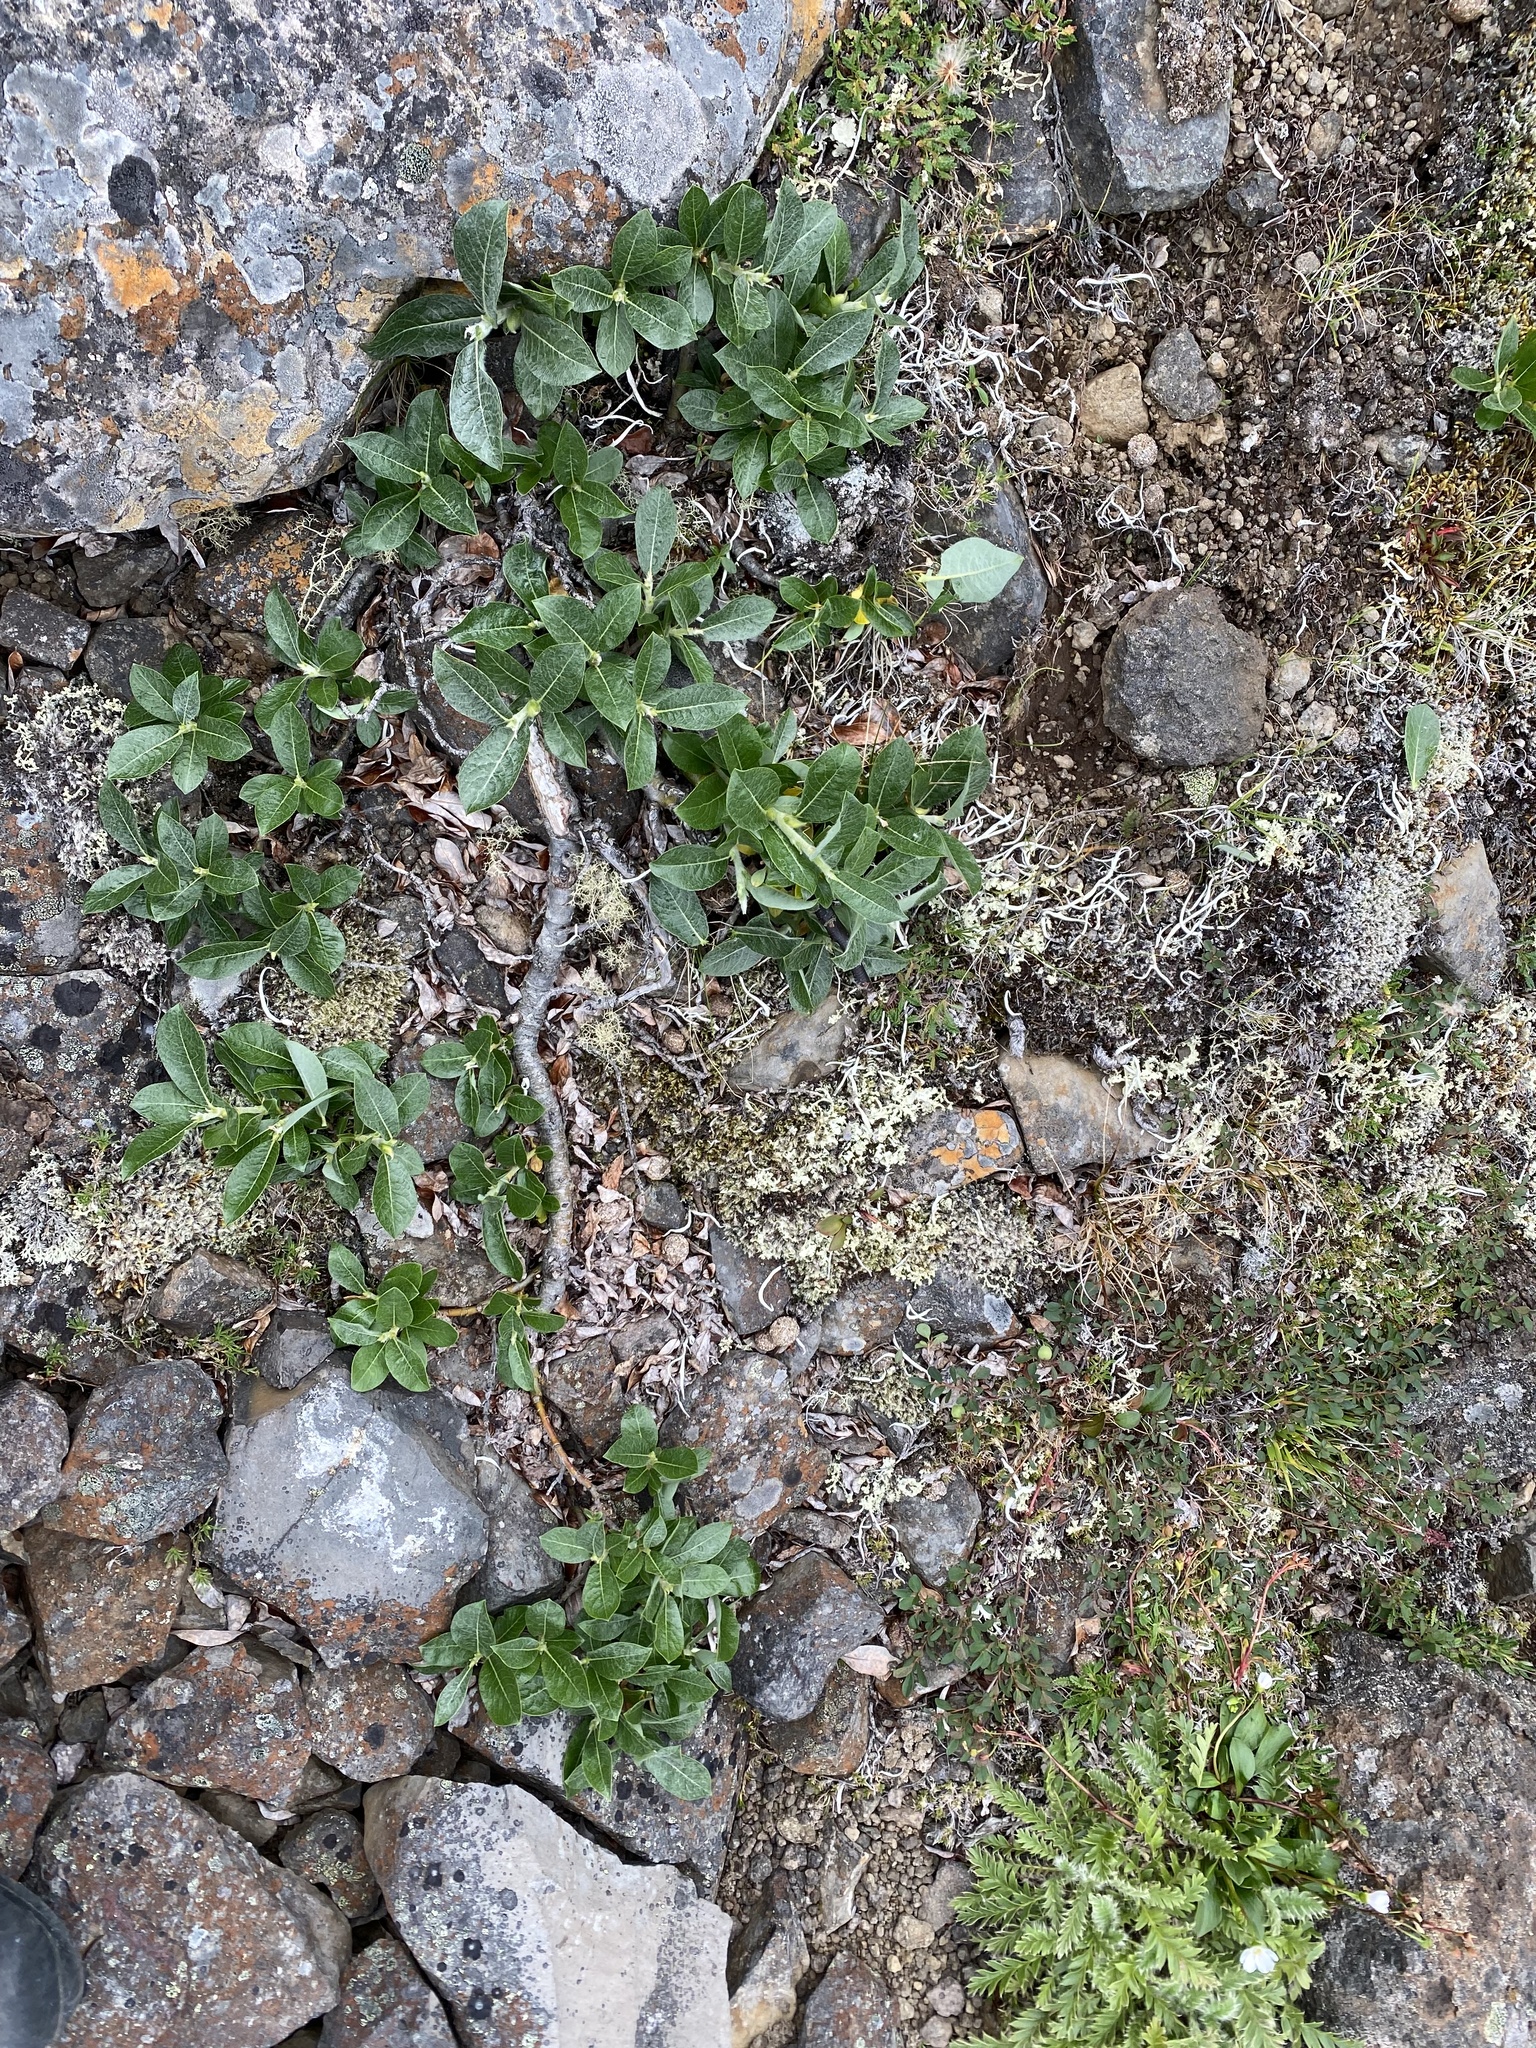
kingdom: Plantae
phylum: Tracheophyta
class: Magnoliopsida
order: Malpighiales
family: Salicaceae
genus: Salix
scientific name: Salix recurvigemmata
